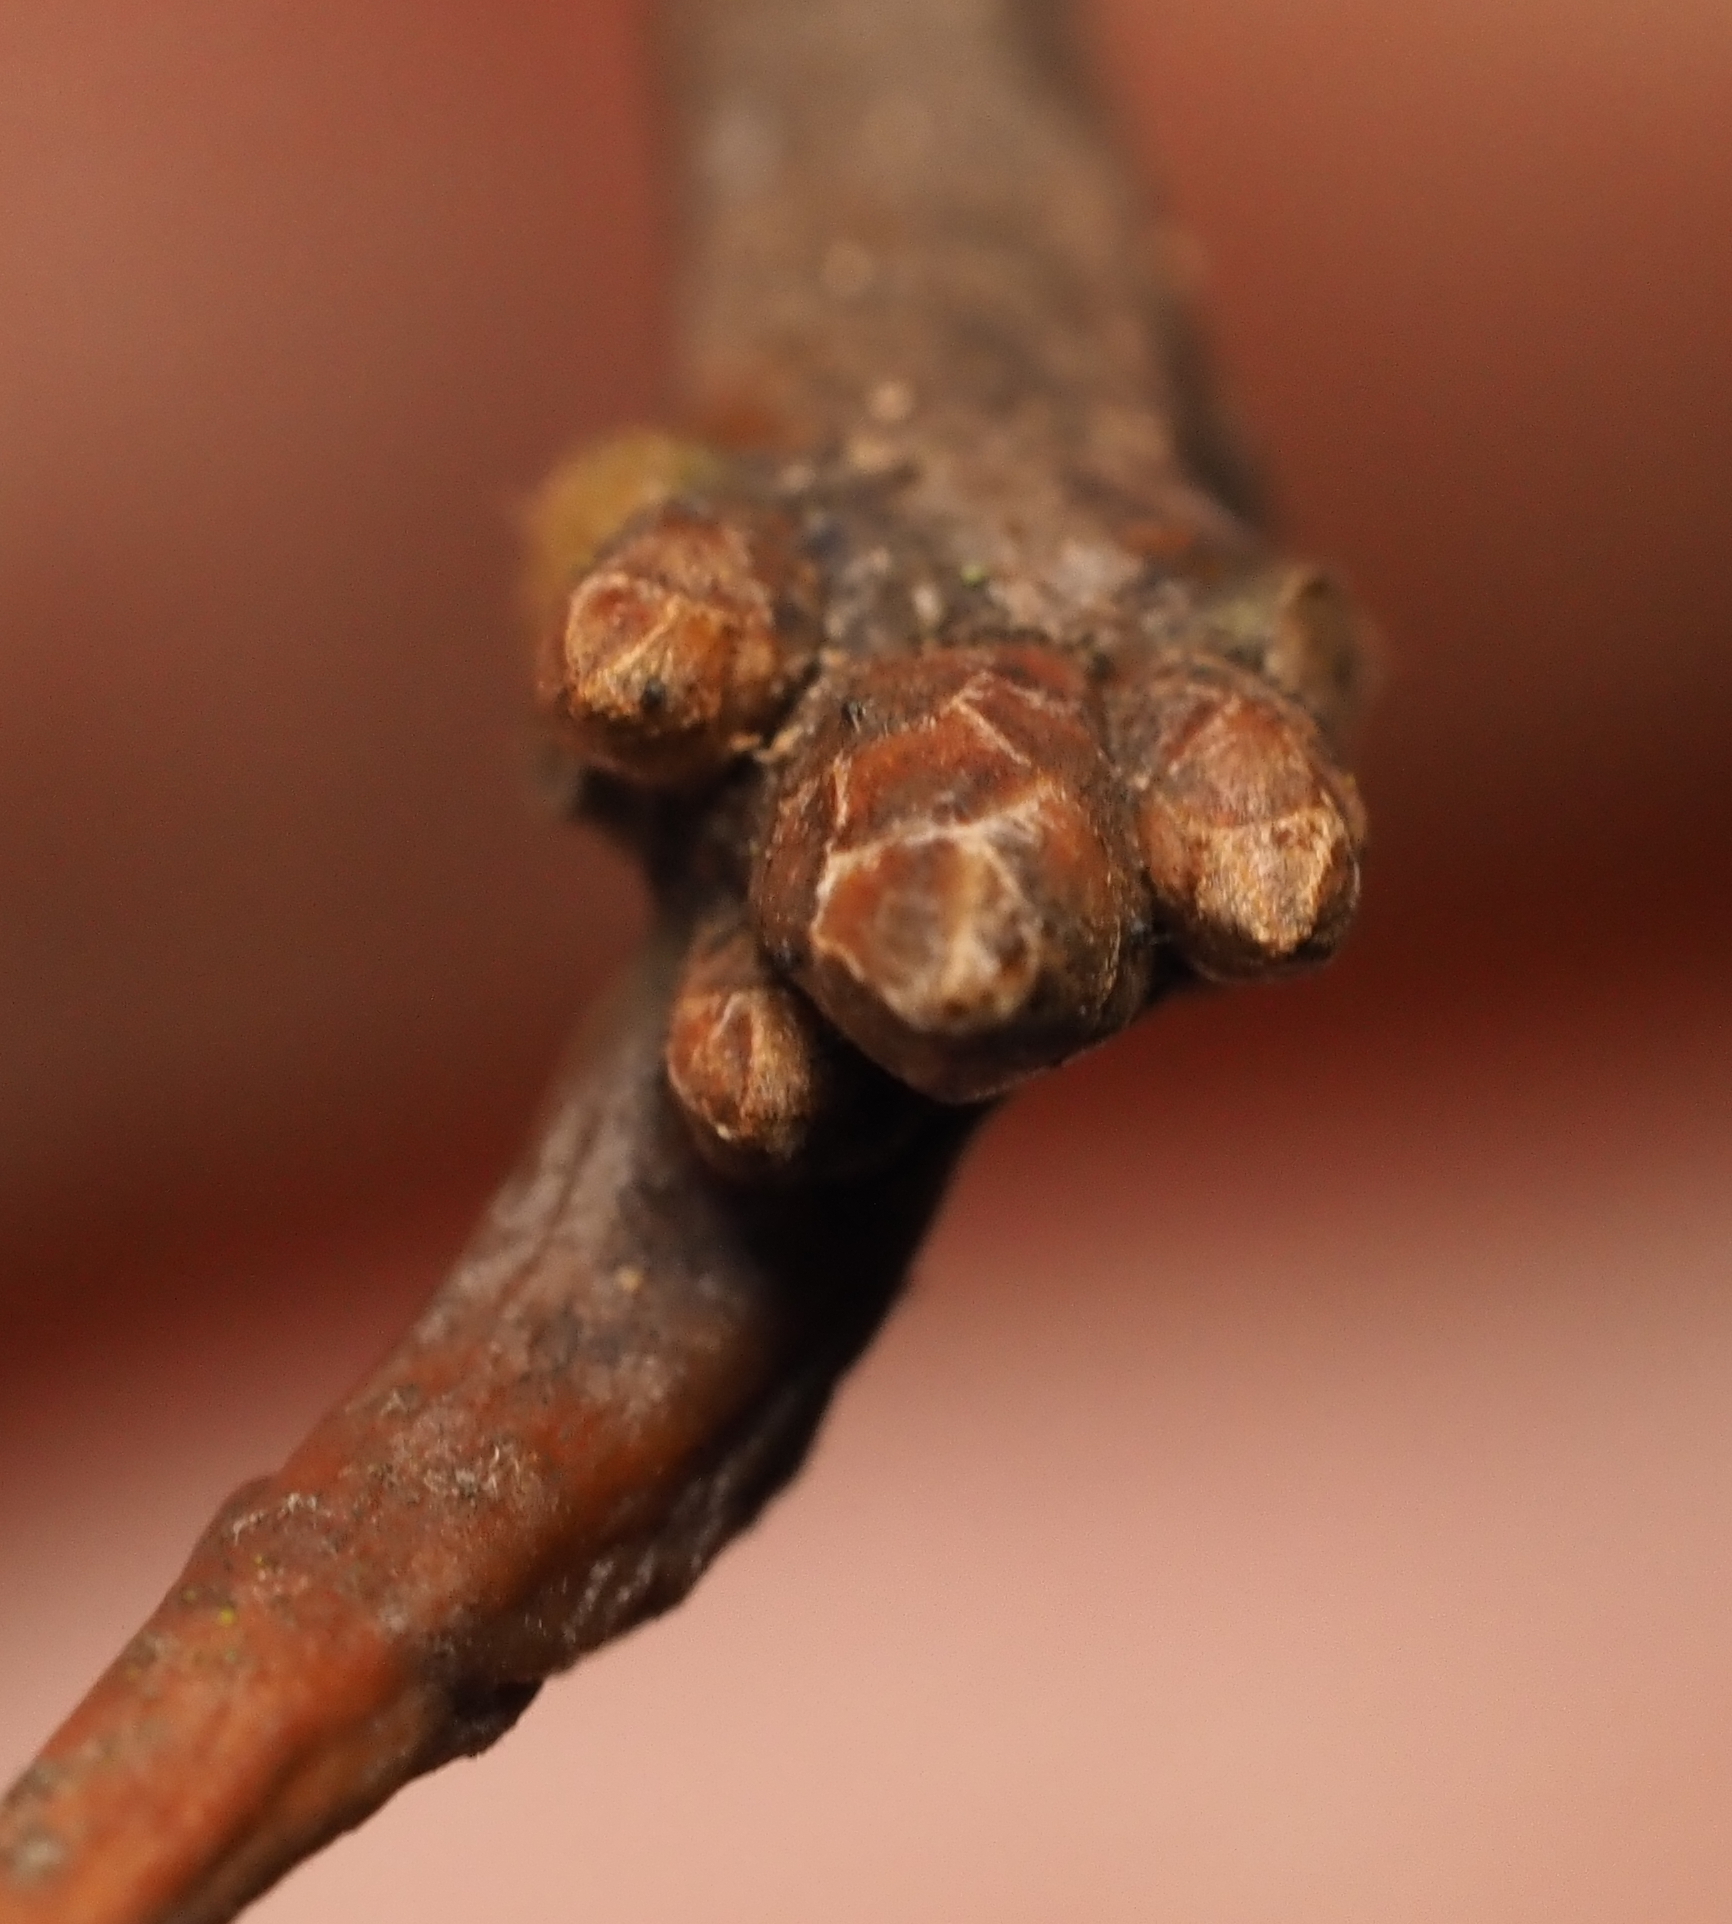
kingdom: Plantae
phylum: Tracheophyta
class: Magnoliopsida
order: Fagales
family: Fagaceae
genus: Quercus
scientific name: Quercus rubra
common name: Red oak
